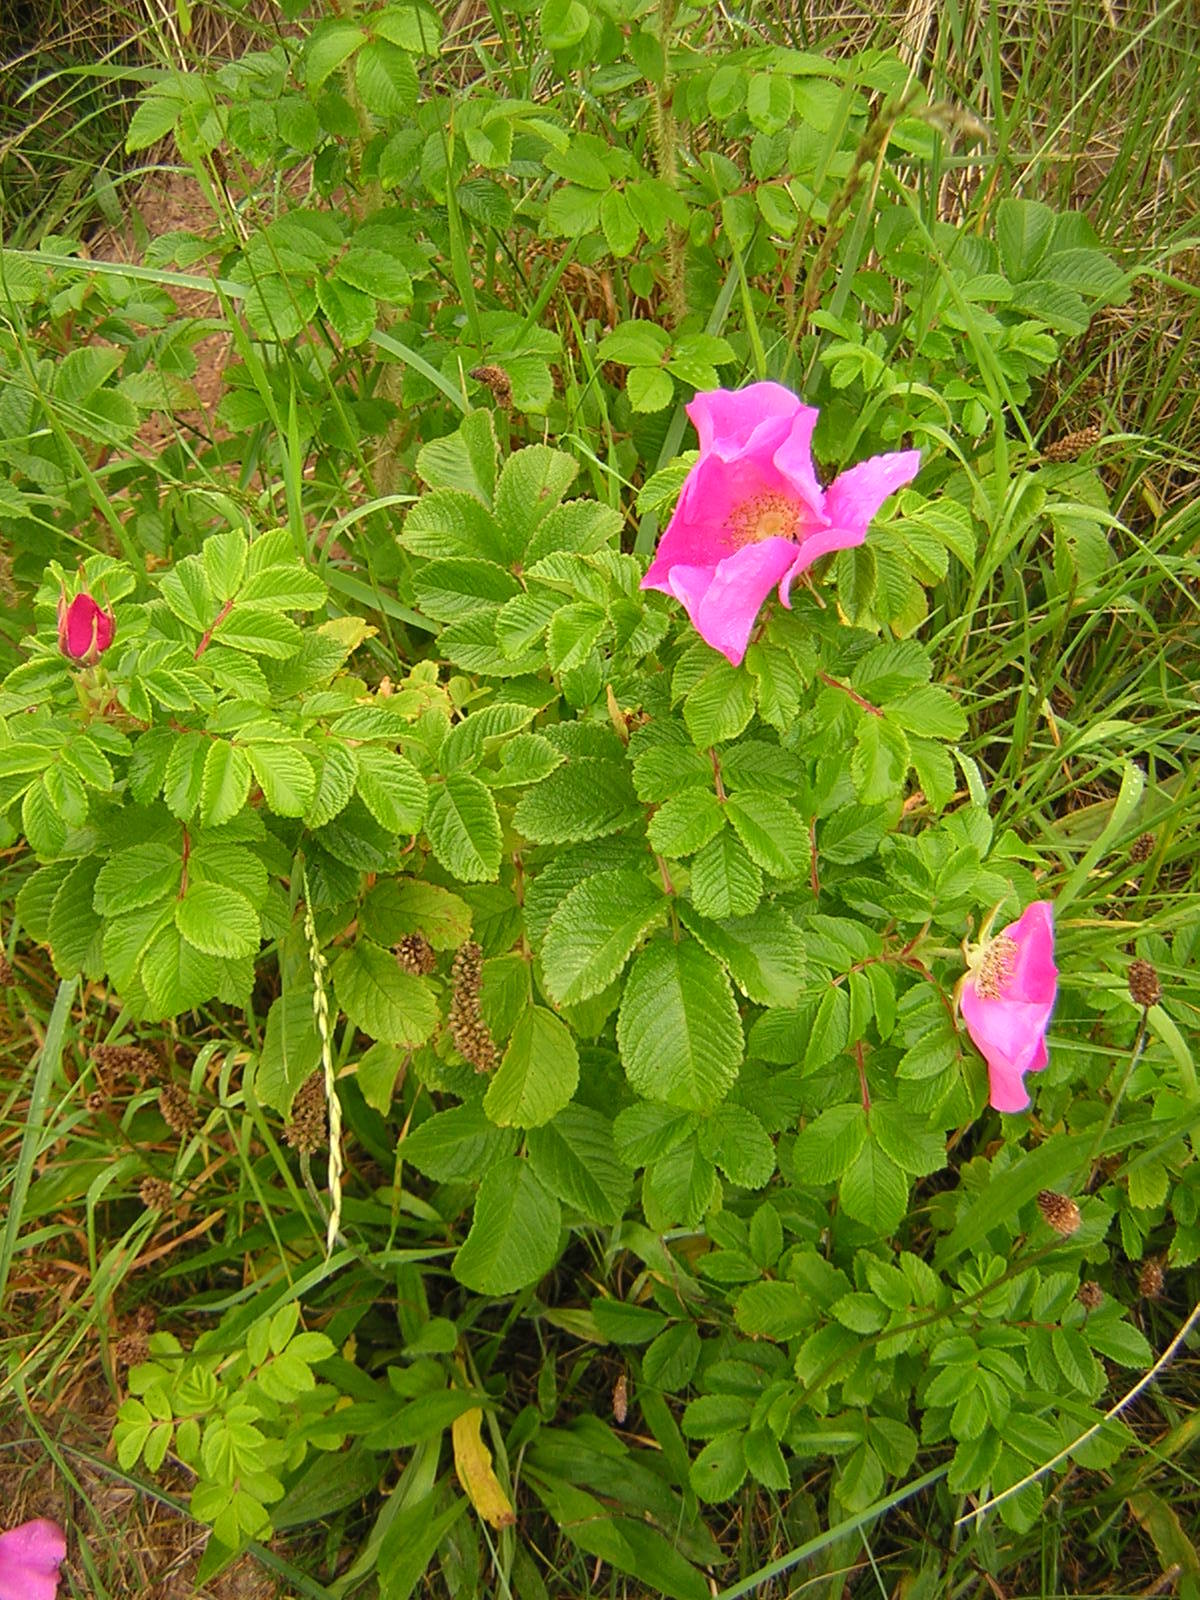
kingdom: Plantae
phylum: Tracheophyta
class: Magnoliopsida
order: Rosales
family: Rosaceae
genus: Rosa
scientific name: Rosa rugosa
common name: Japanese rose
